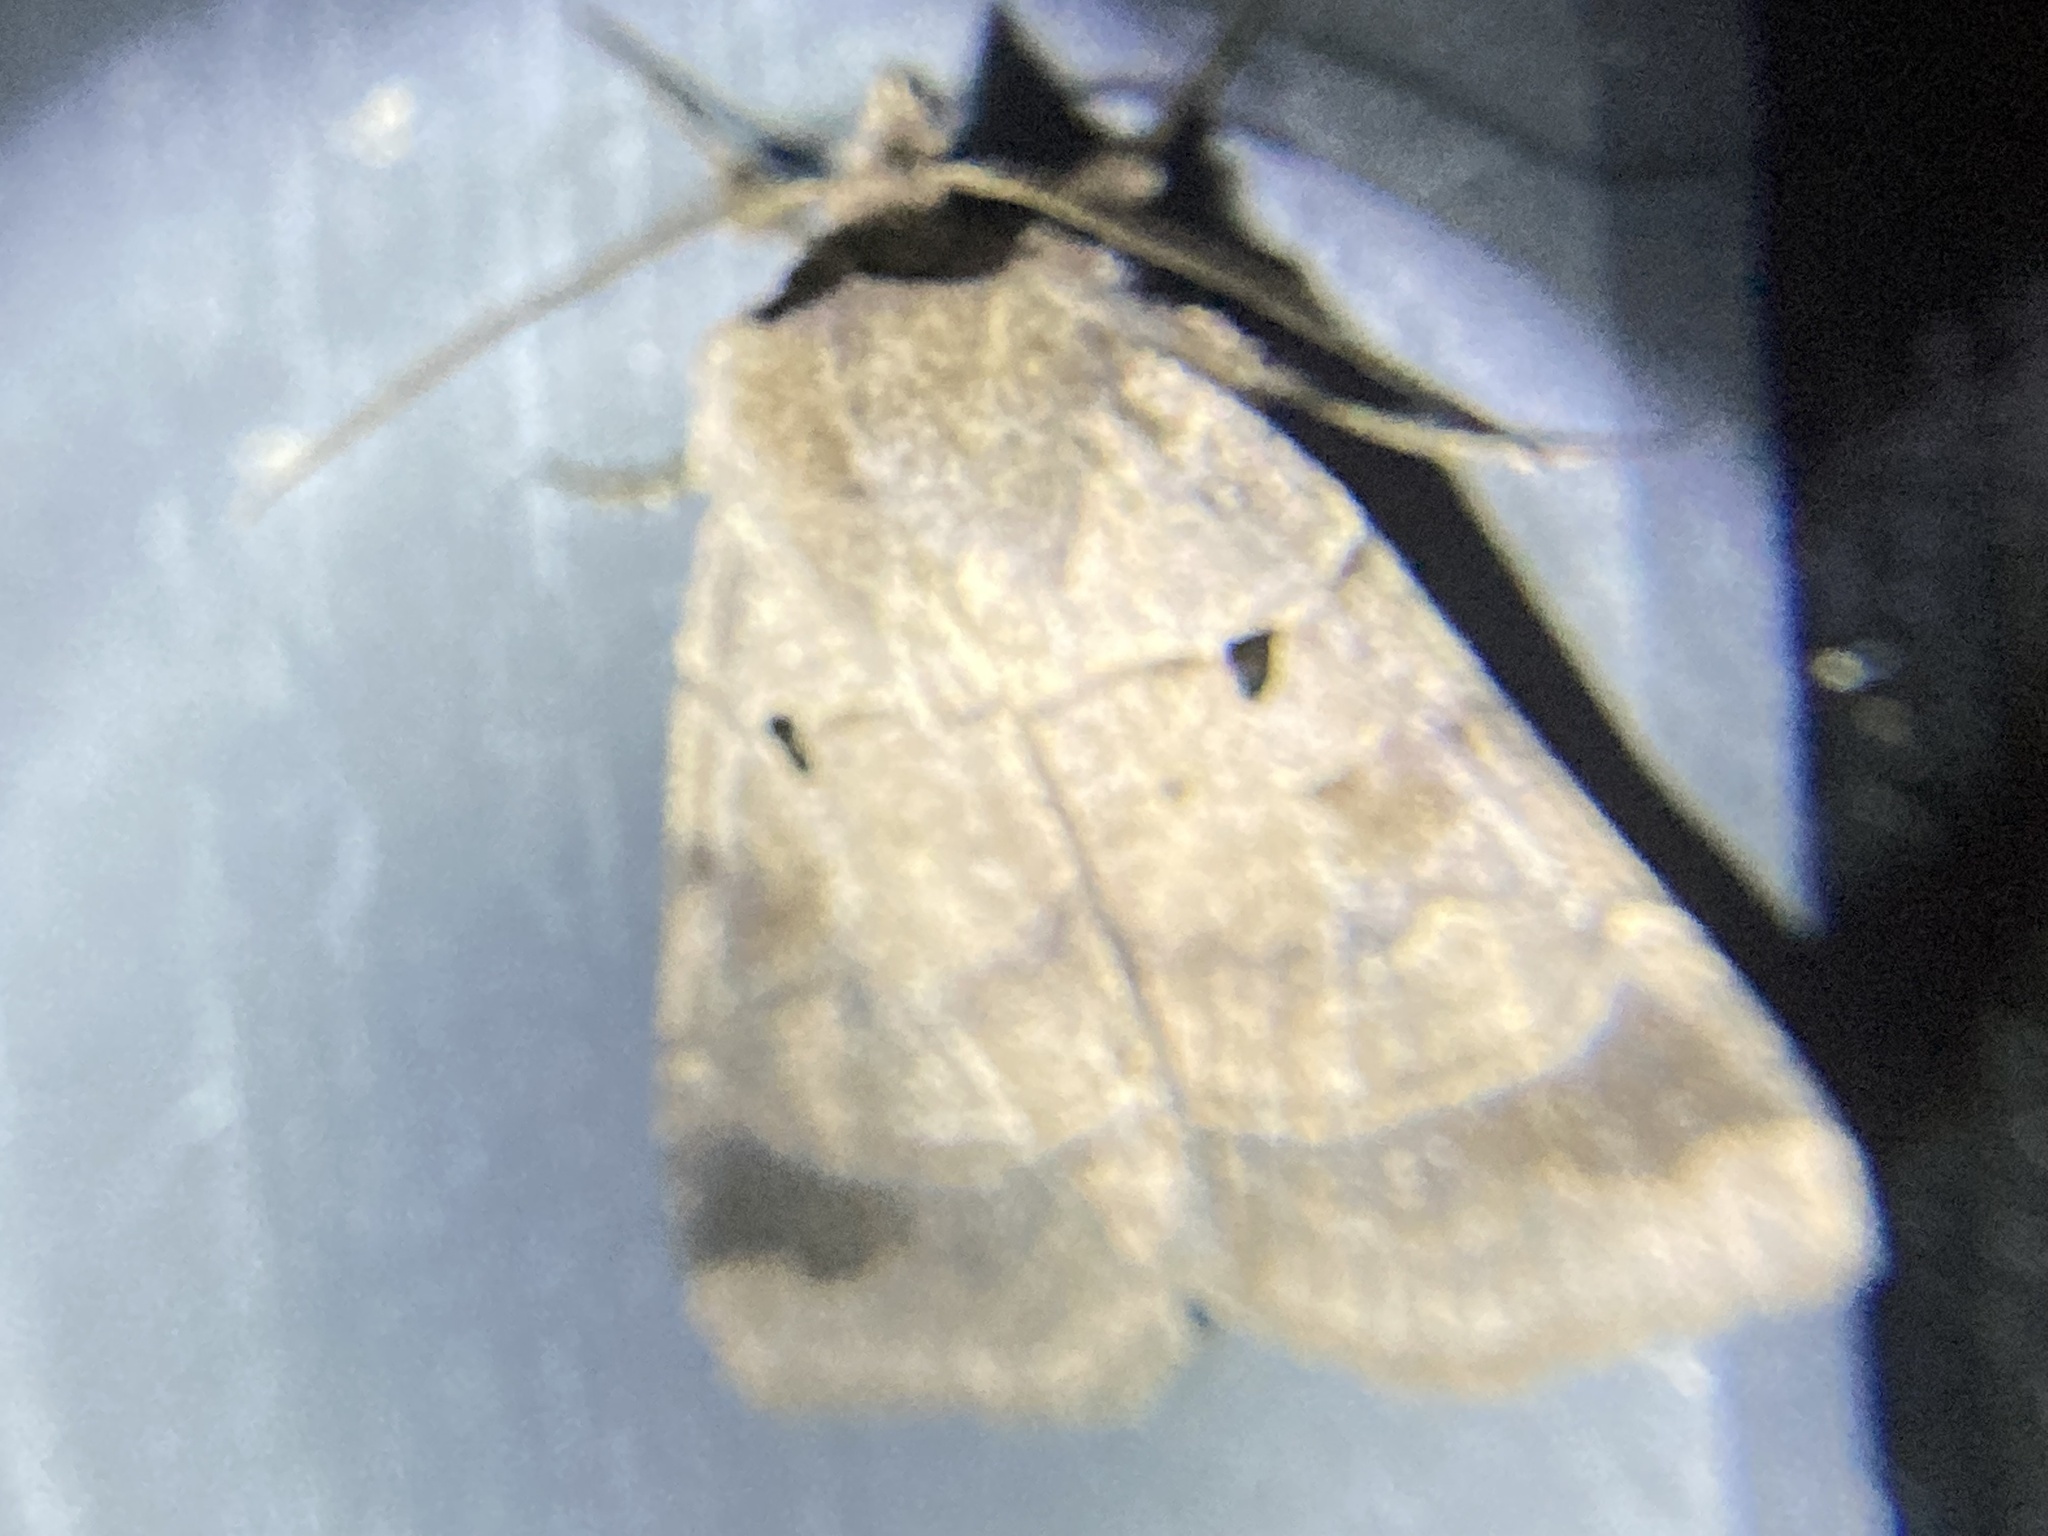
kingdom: Animalia
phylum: Arthropoda
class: Insecta
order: Lepidoptera
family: Noctuidae
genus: Agnorisma
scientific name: Agnorisma badinodis
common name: Pale-banded dart
